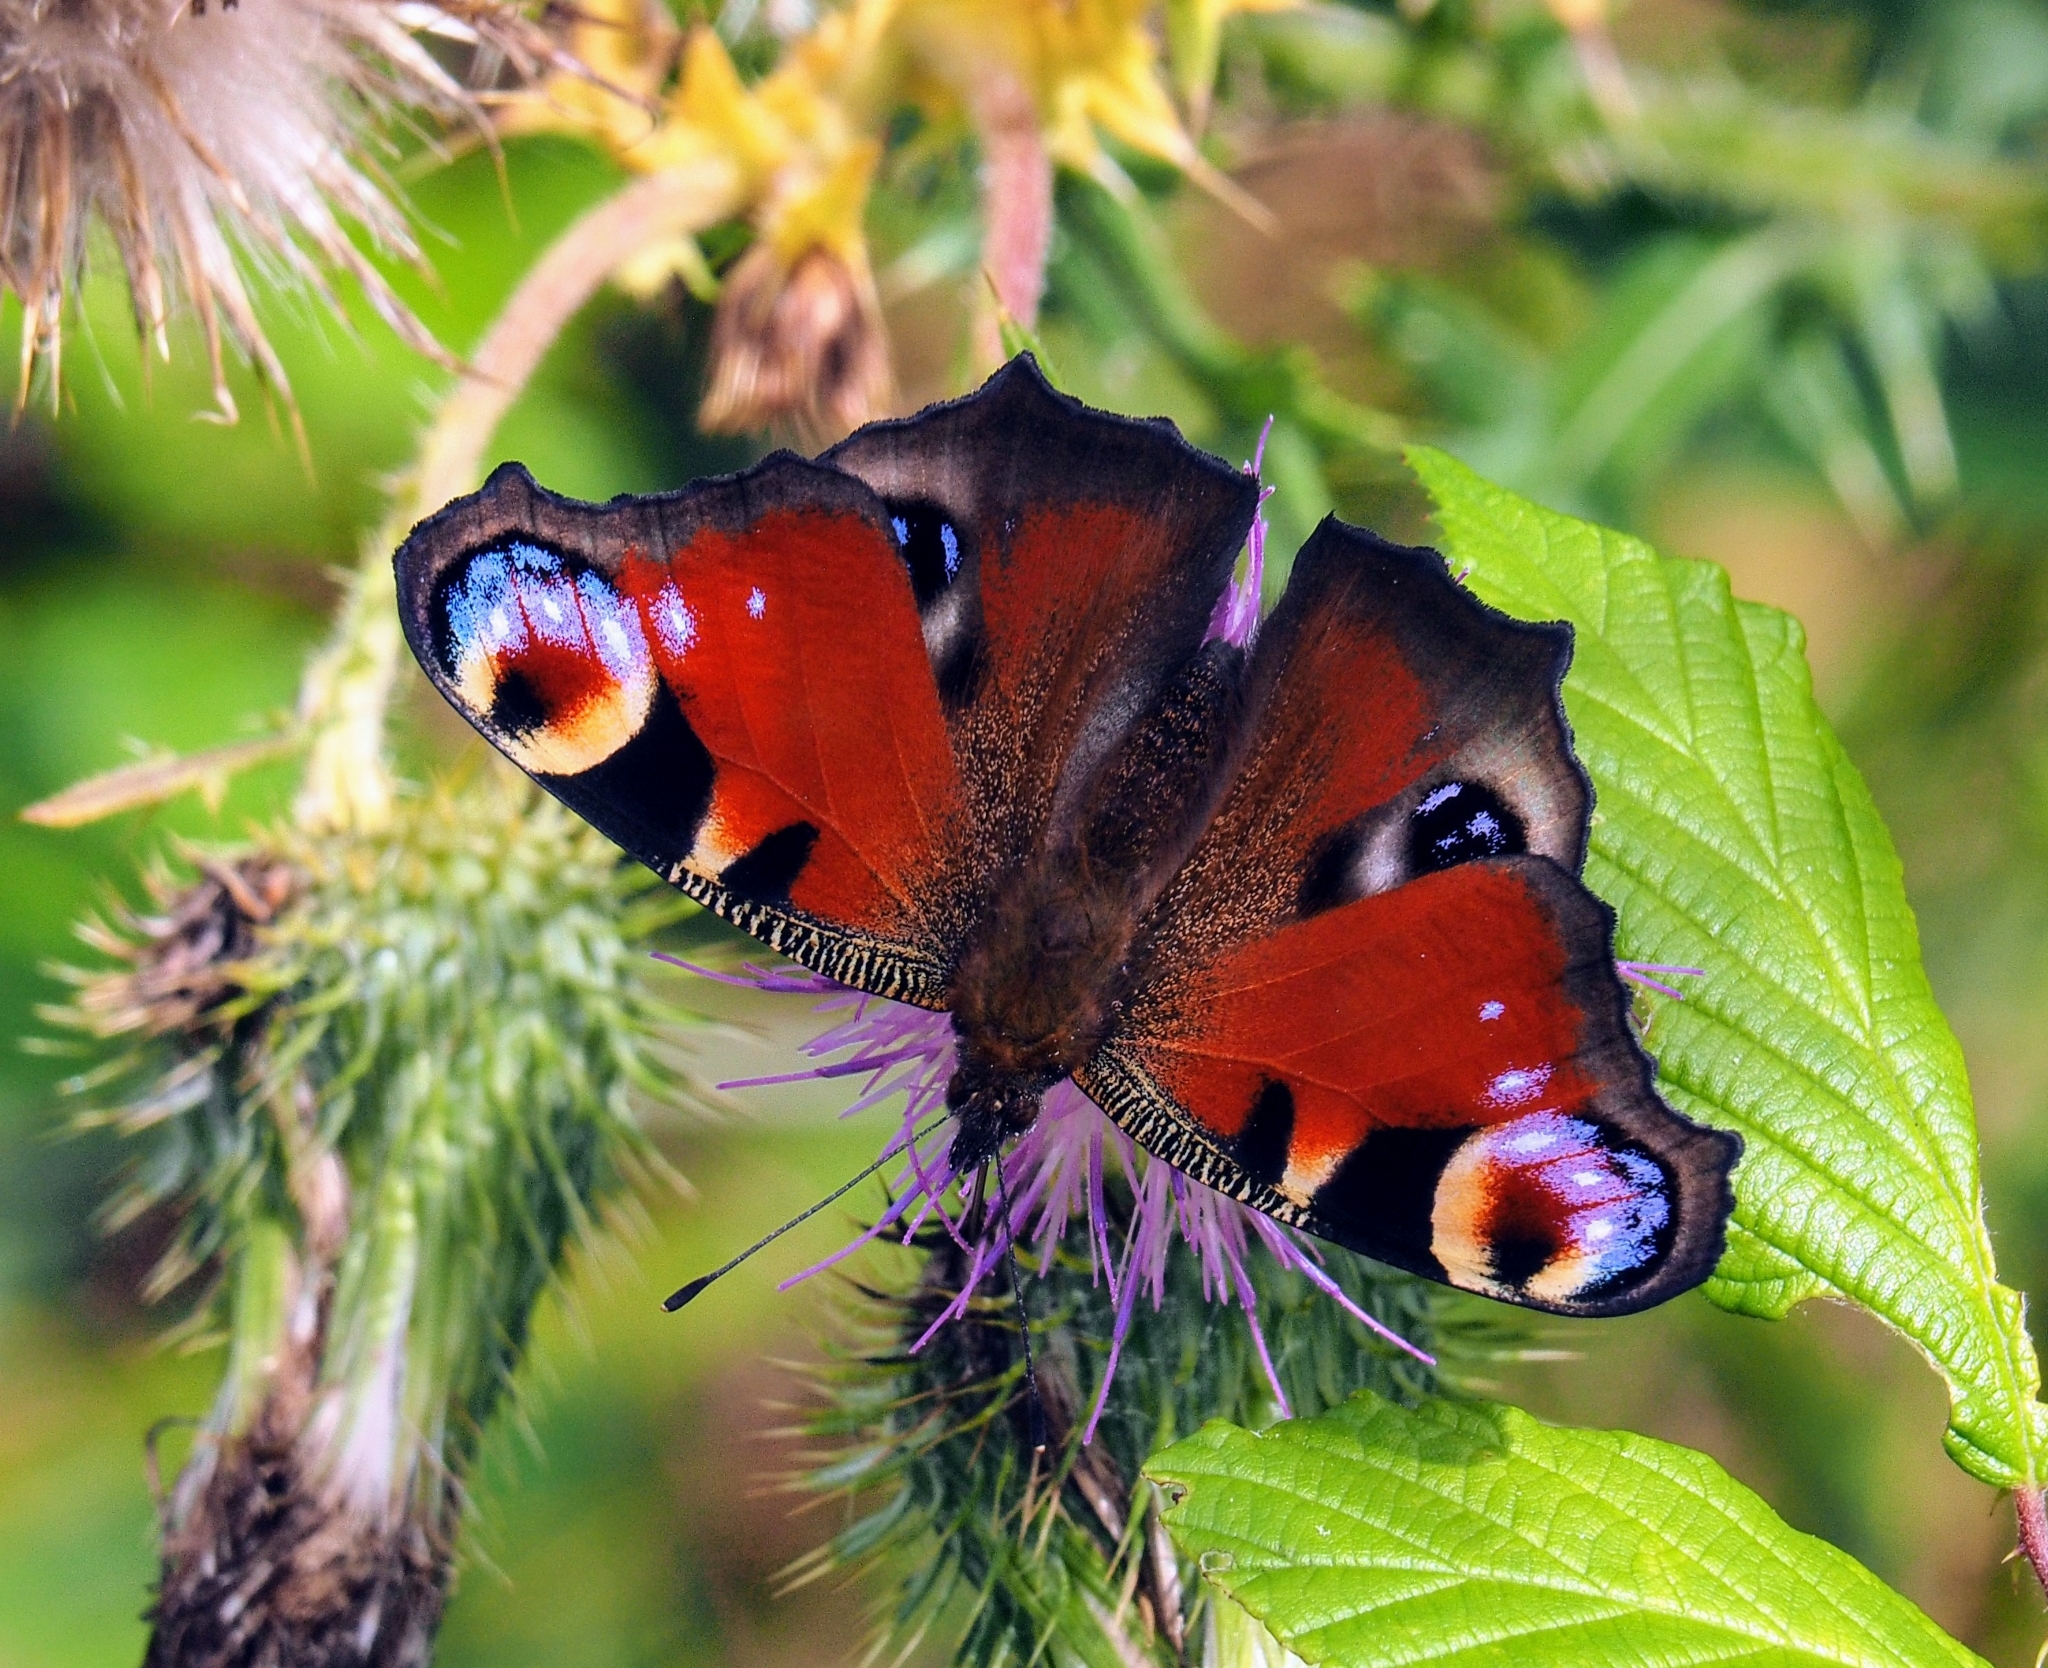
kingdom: Animalia
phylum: Arthropoda
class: Insecta
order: Lepidoptera
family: Nymphalidae
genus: Aglais
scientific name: Aglais io
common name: Peacock
